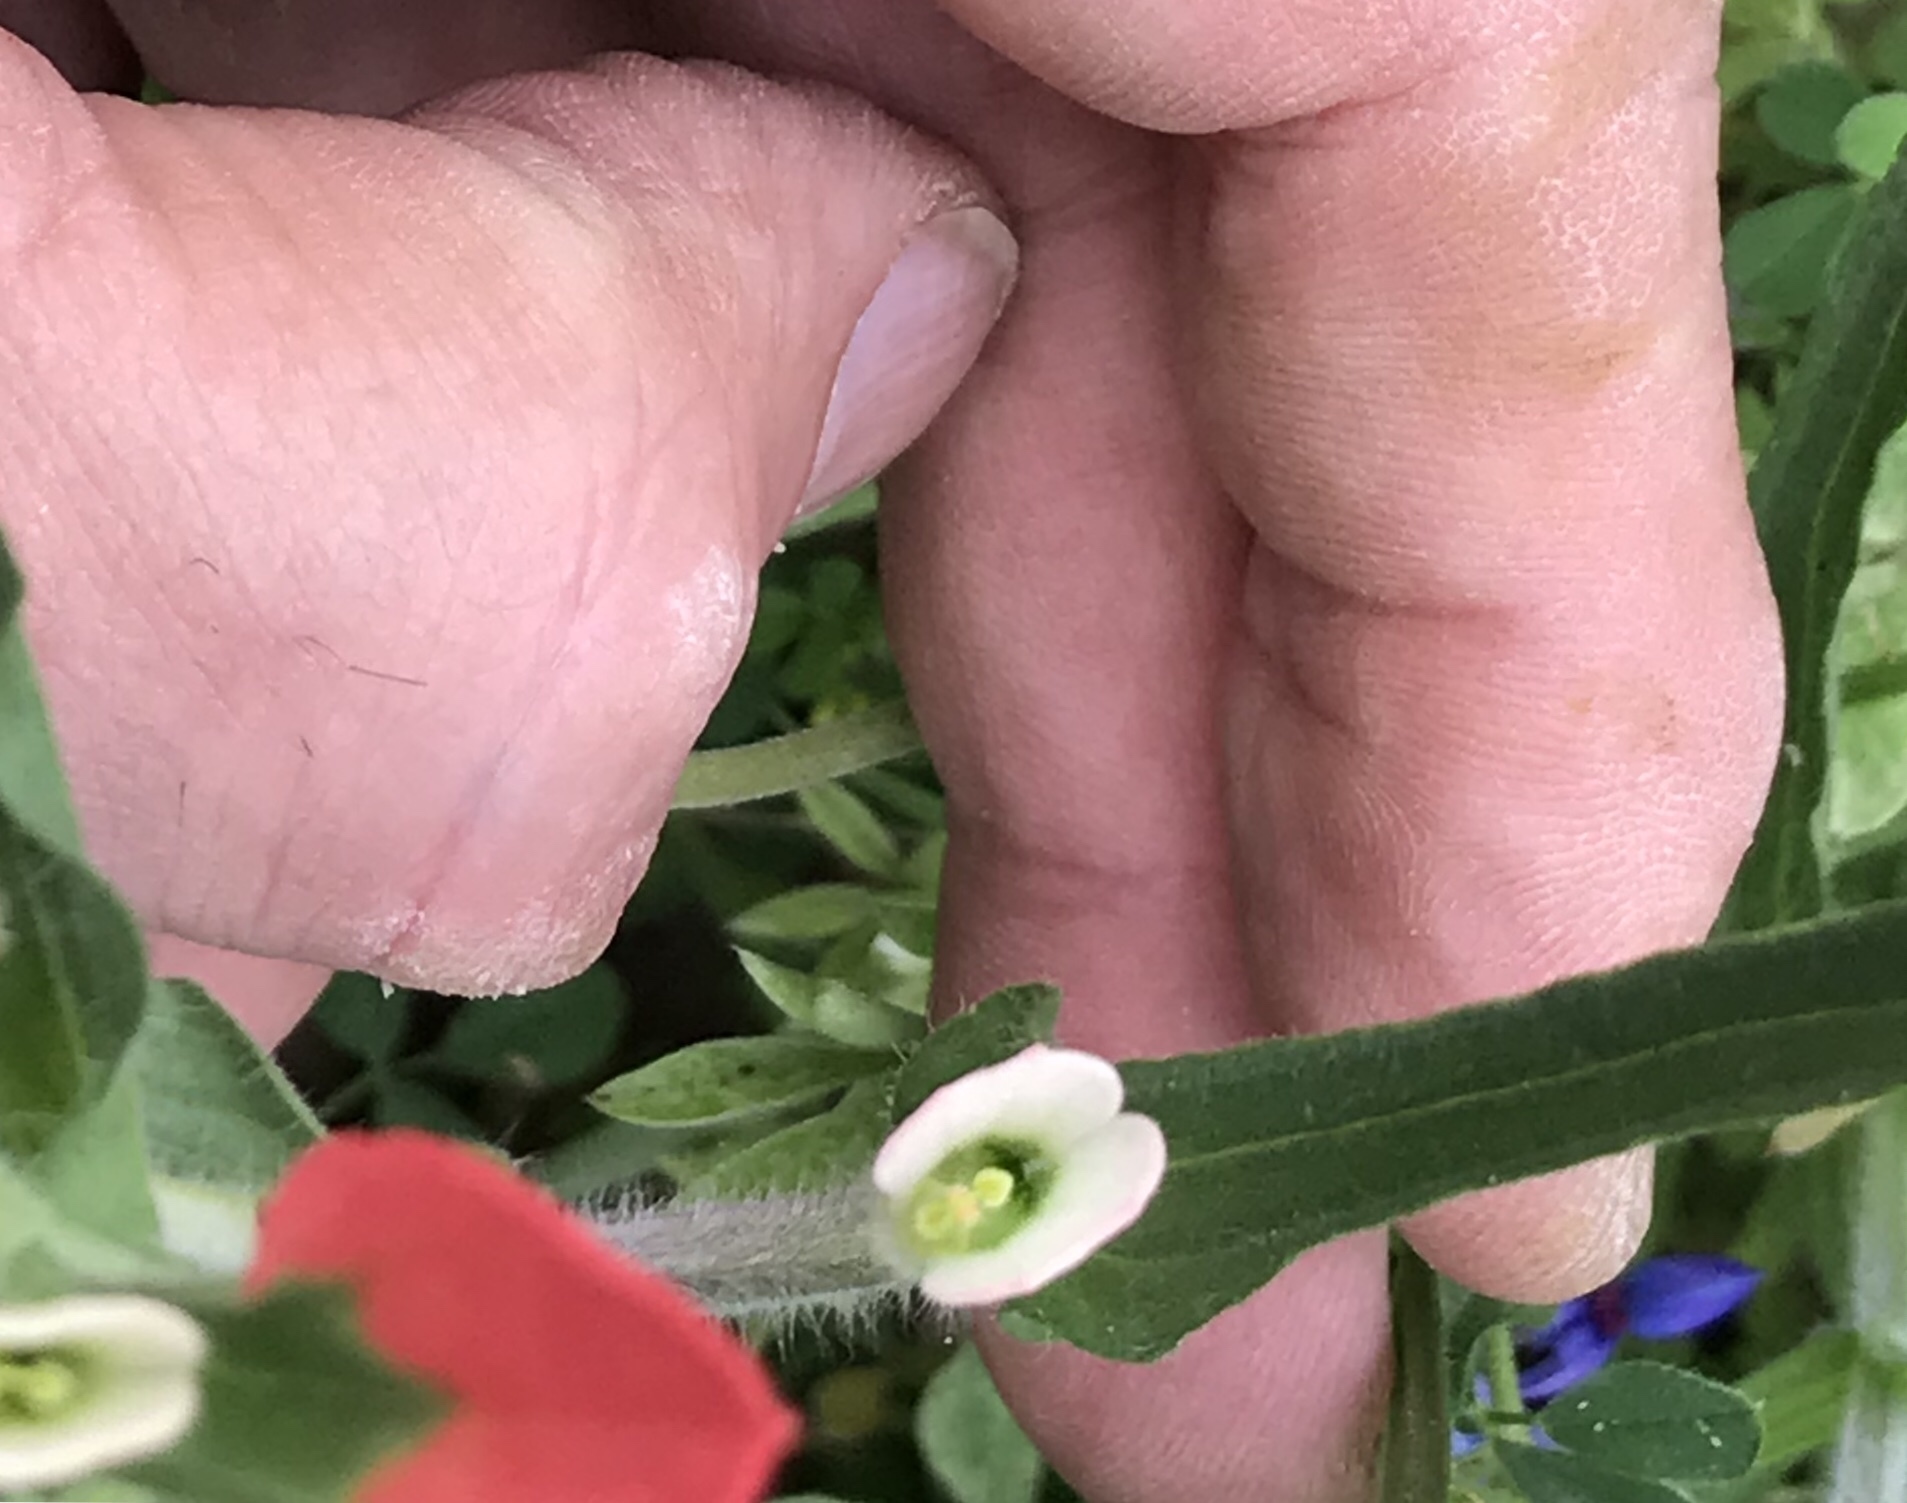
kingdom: Plantae
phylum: Tracheophyta
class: Magnoliopsida
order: Lamiales
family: Orobanchaceae
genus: Castilleja
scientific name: Castilleja indivisa
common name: Texas paintbrush
